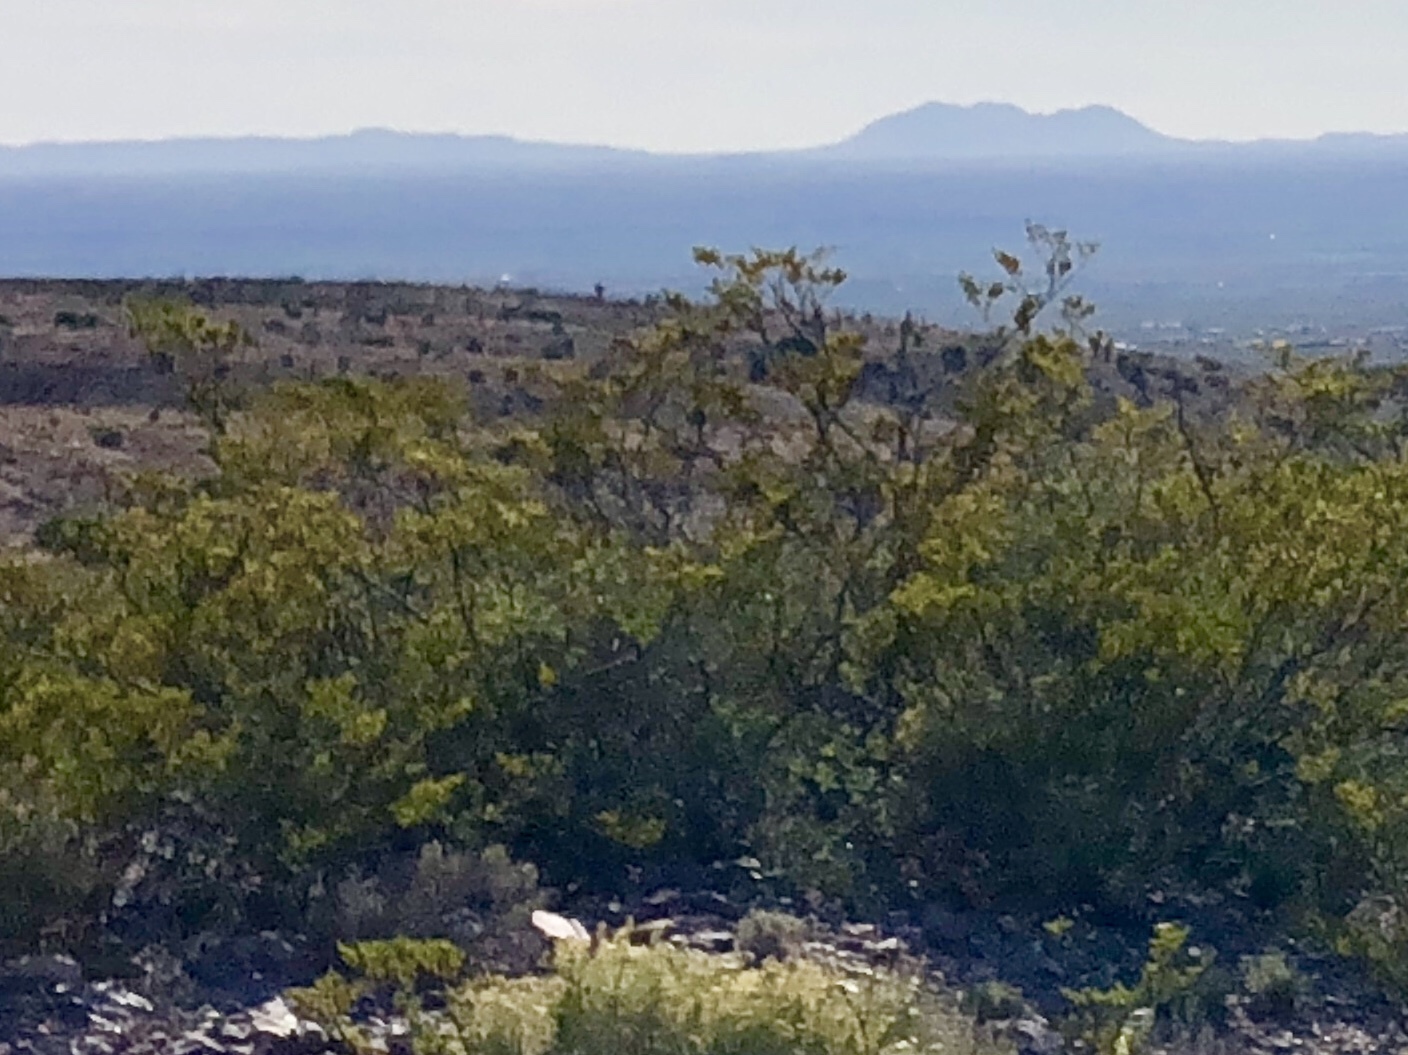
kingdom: Plantae
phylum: Tracheophyta
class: Magnoliopsida
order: Zygophyllales
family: Zygophyllaceae
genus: Larrea
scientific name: Larrea tridentata
